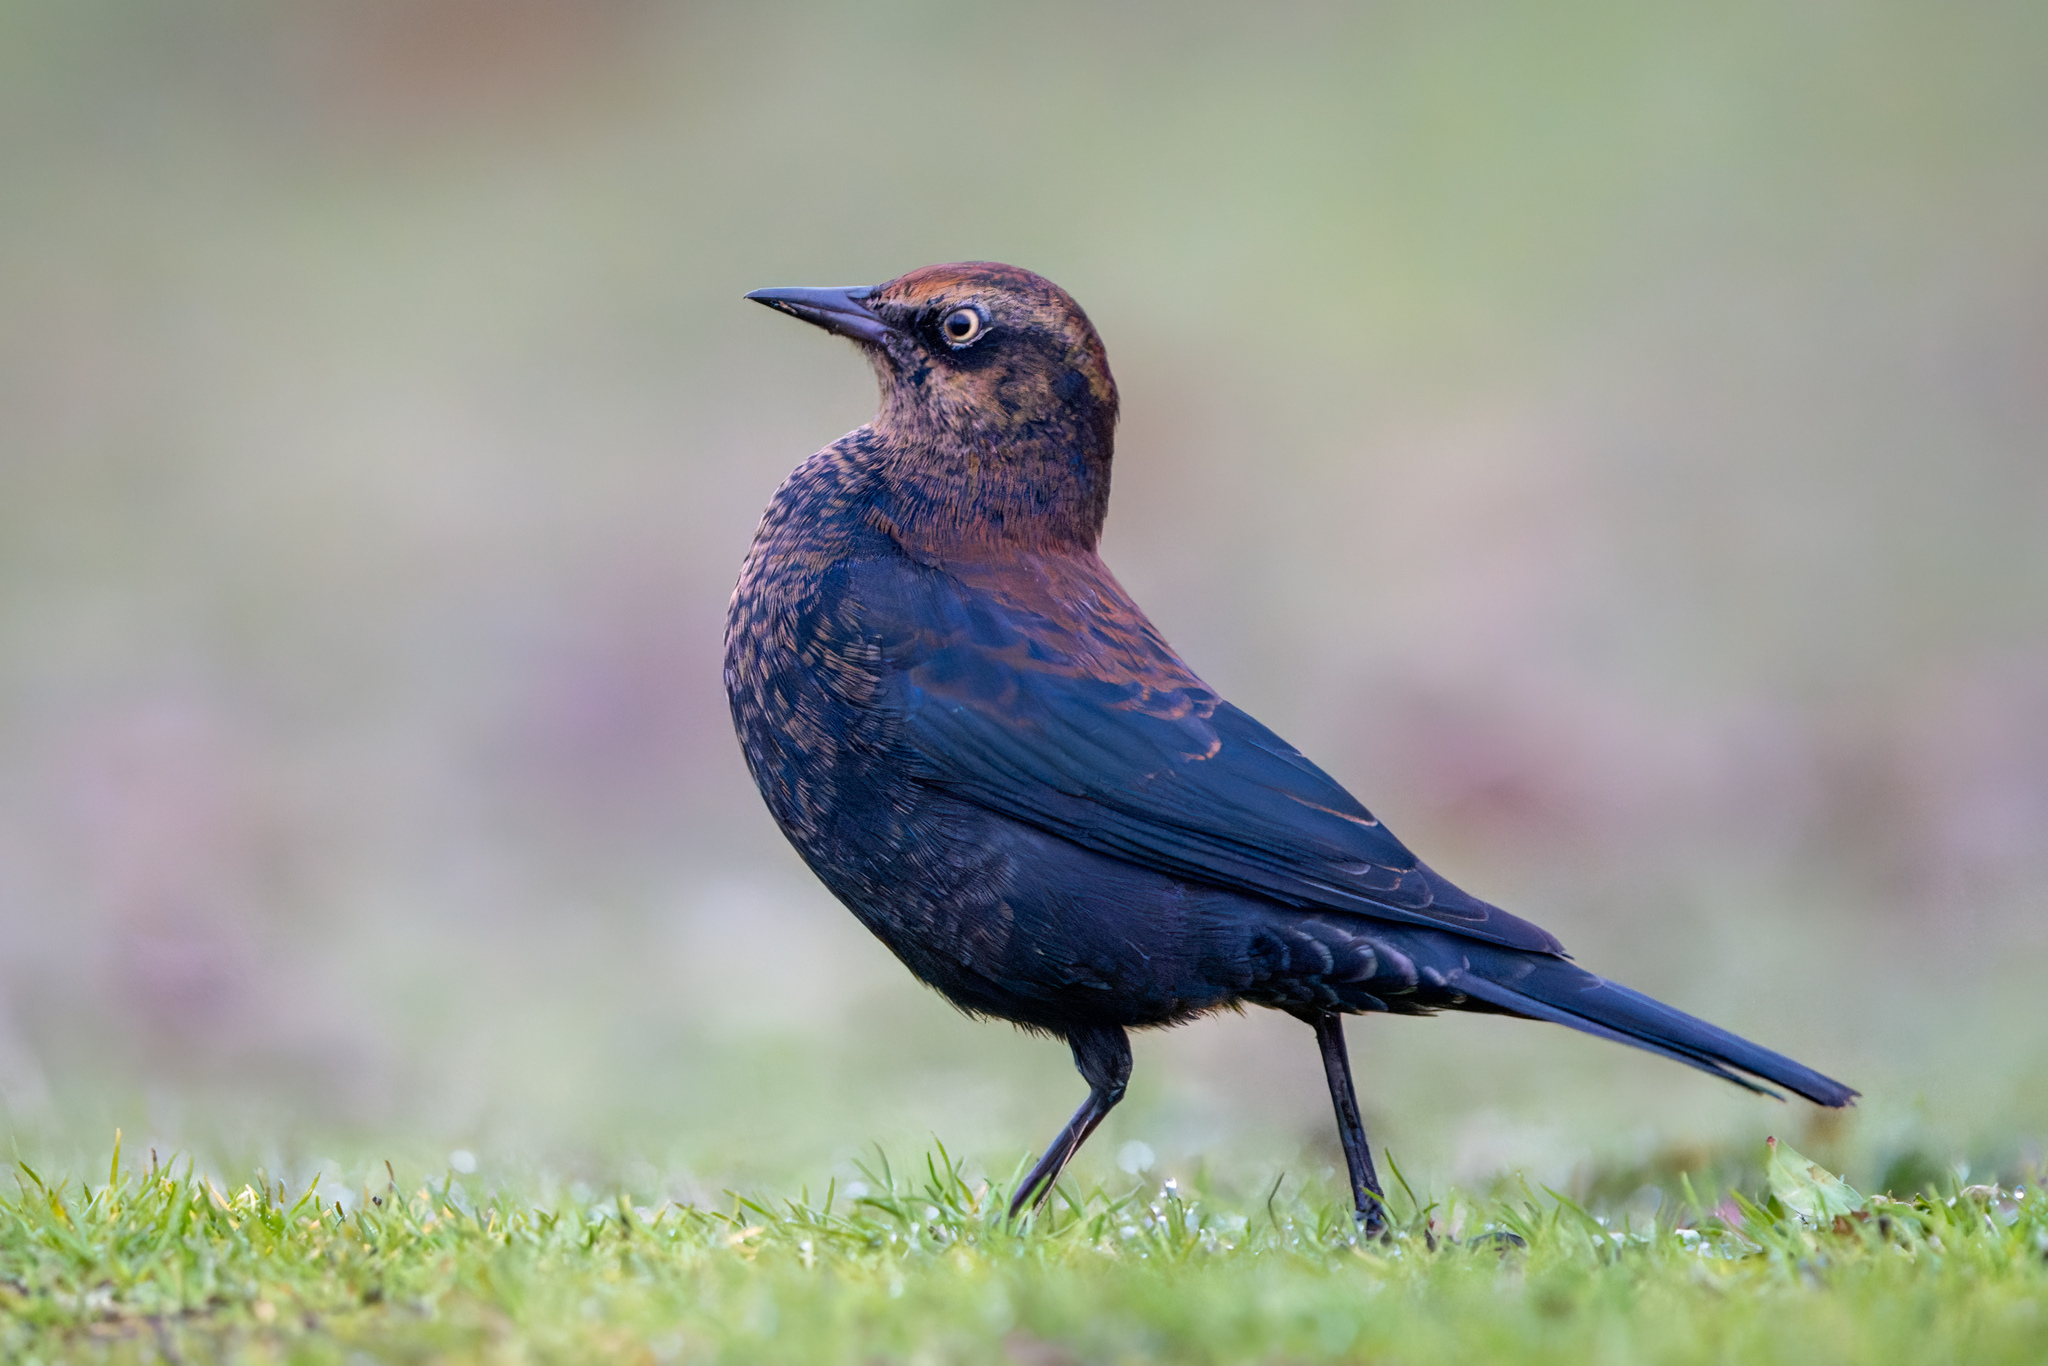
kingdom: Animalia
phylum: Chordata
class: Aves
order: Passeriformes
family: Icteridae
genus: Euphagus
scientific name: Euphagus carolinus
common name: Rusty blackbird
